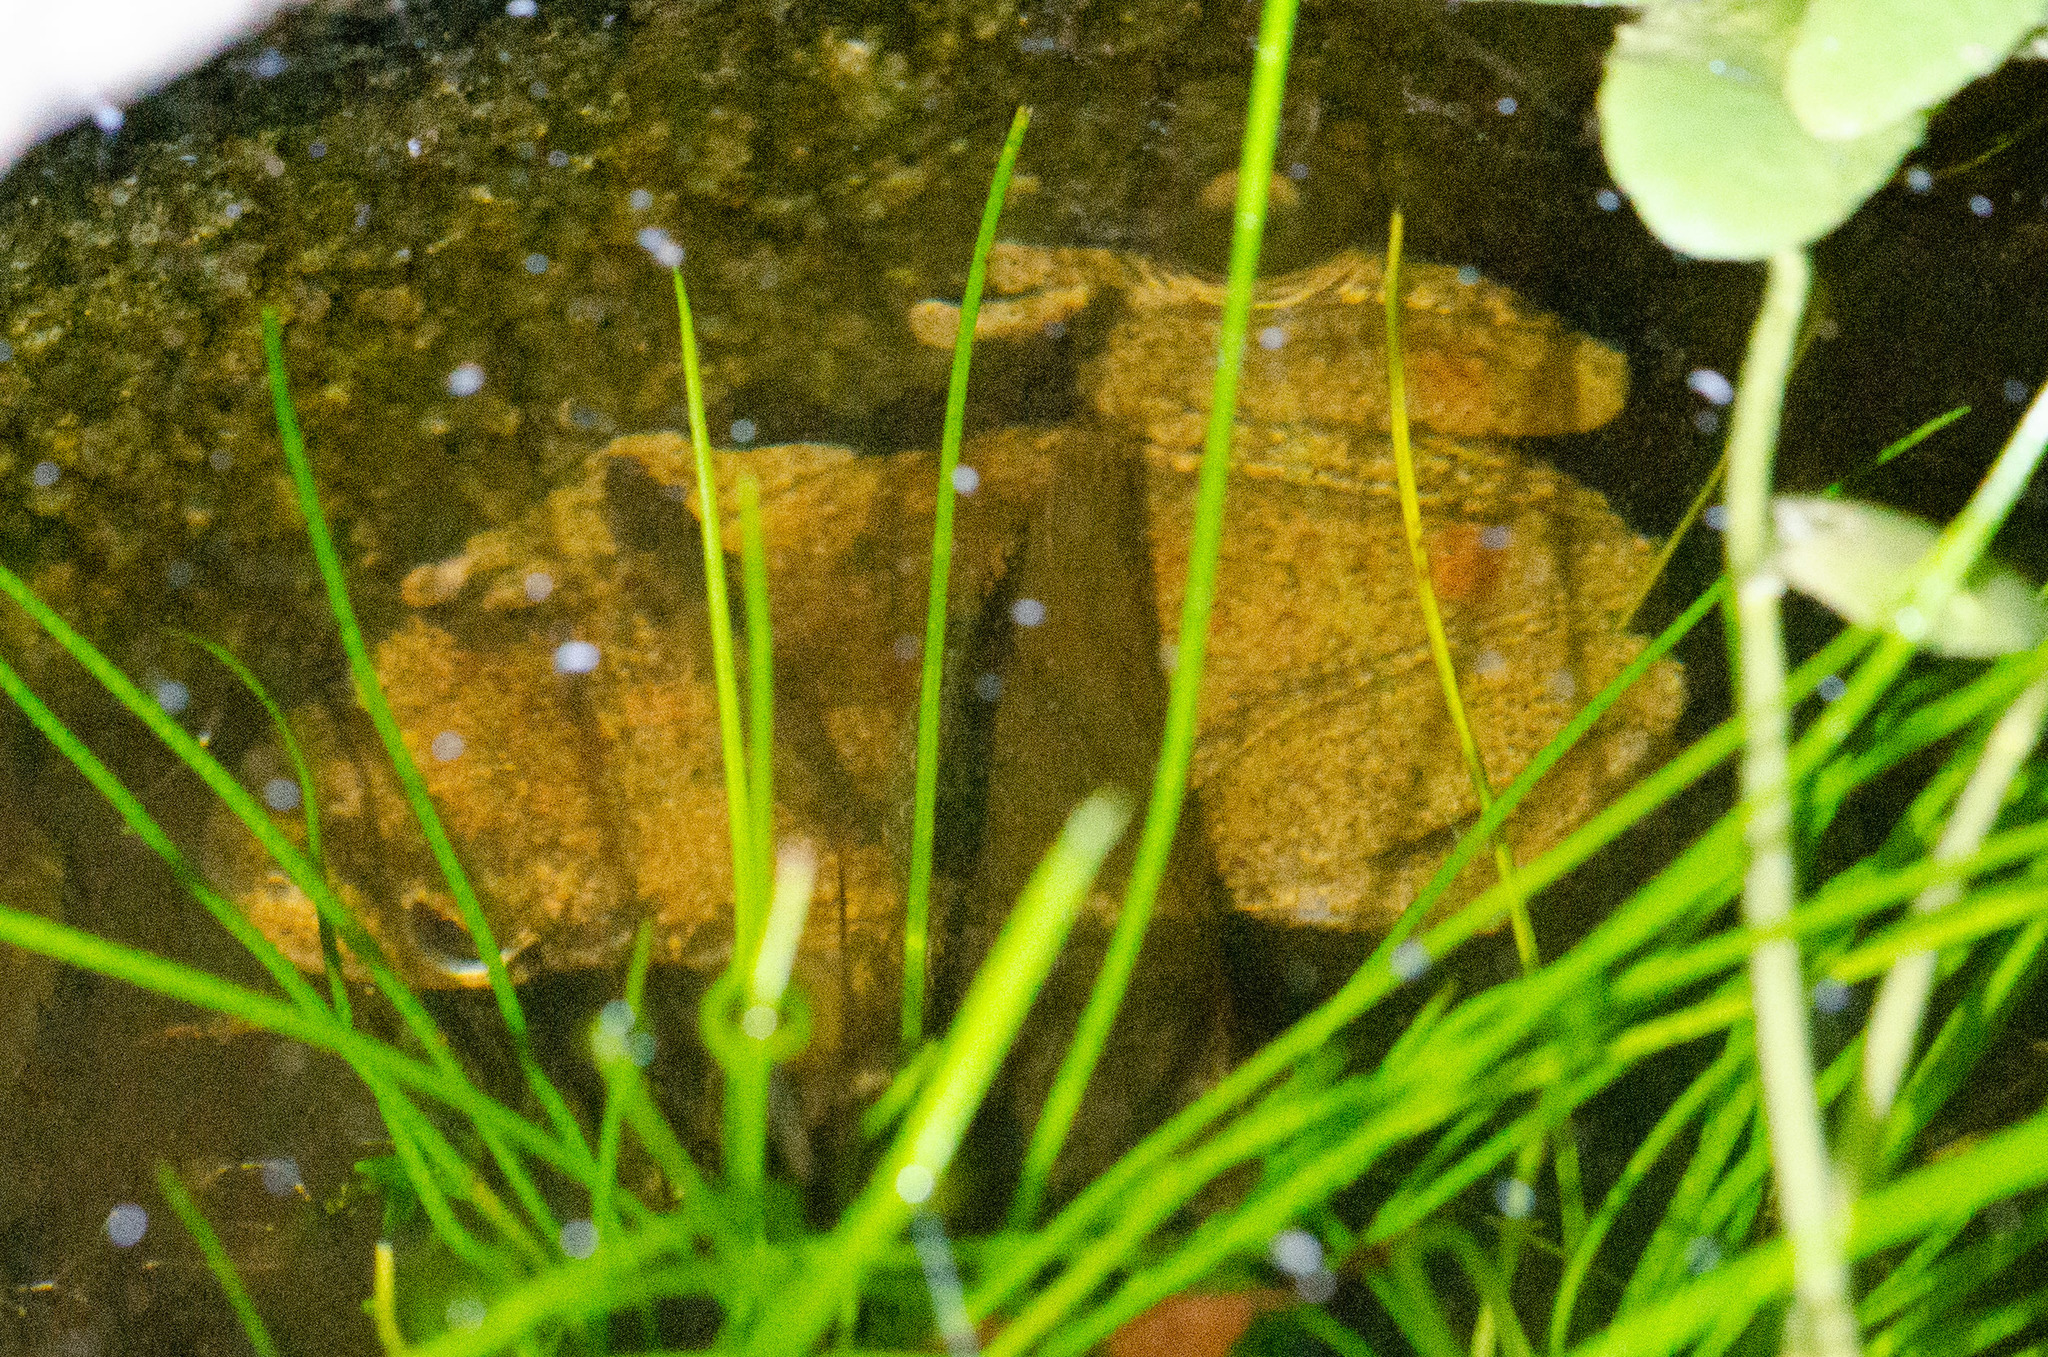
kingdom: Animalia
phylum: Chordata
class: Amphibia
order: Anura
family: Hylidae
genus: Corythomantis
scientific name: Corythomantis greeningi
